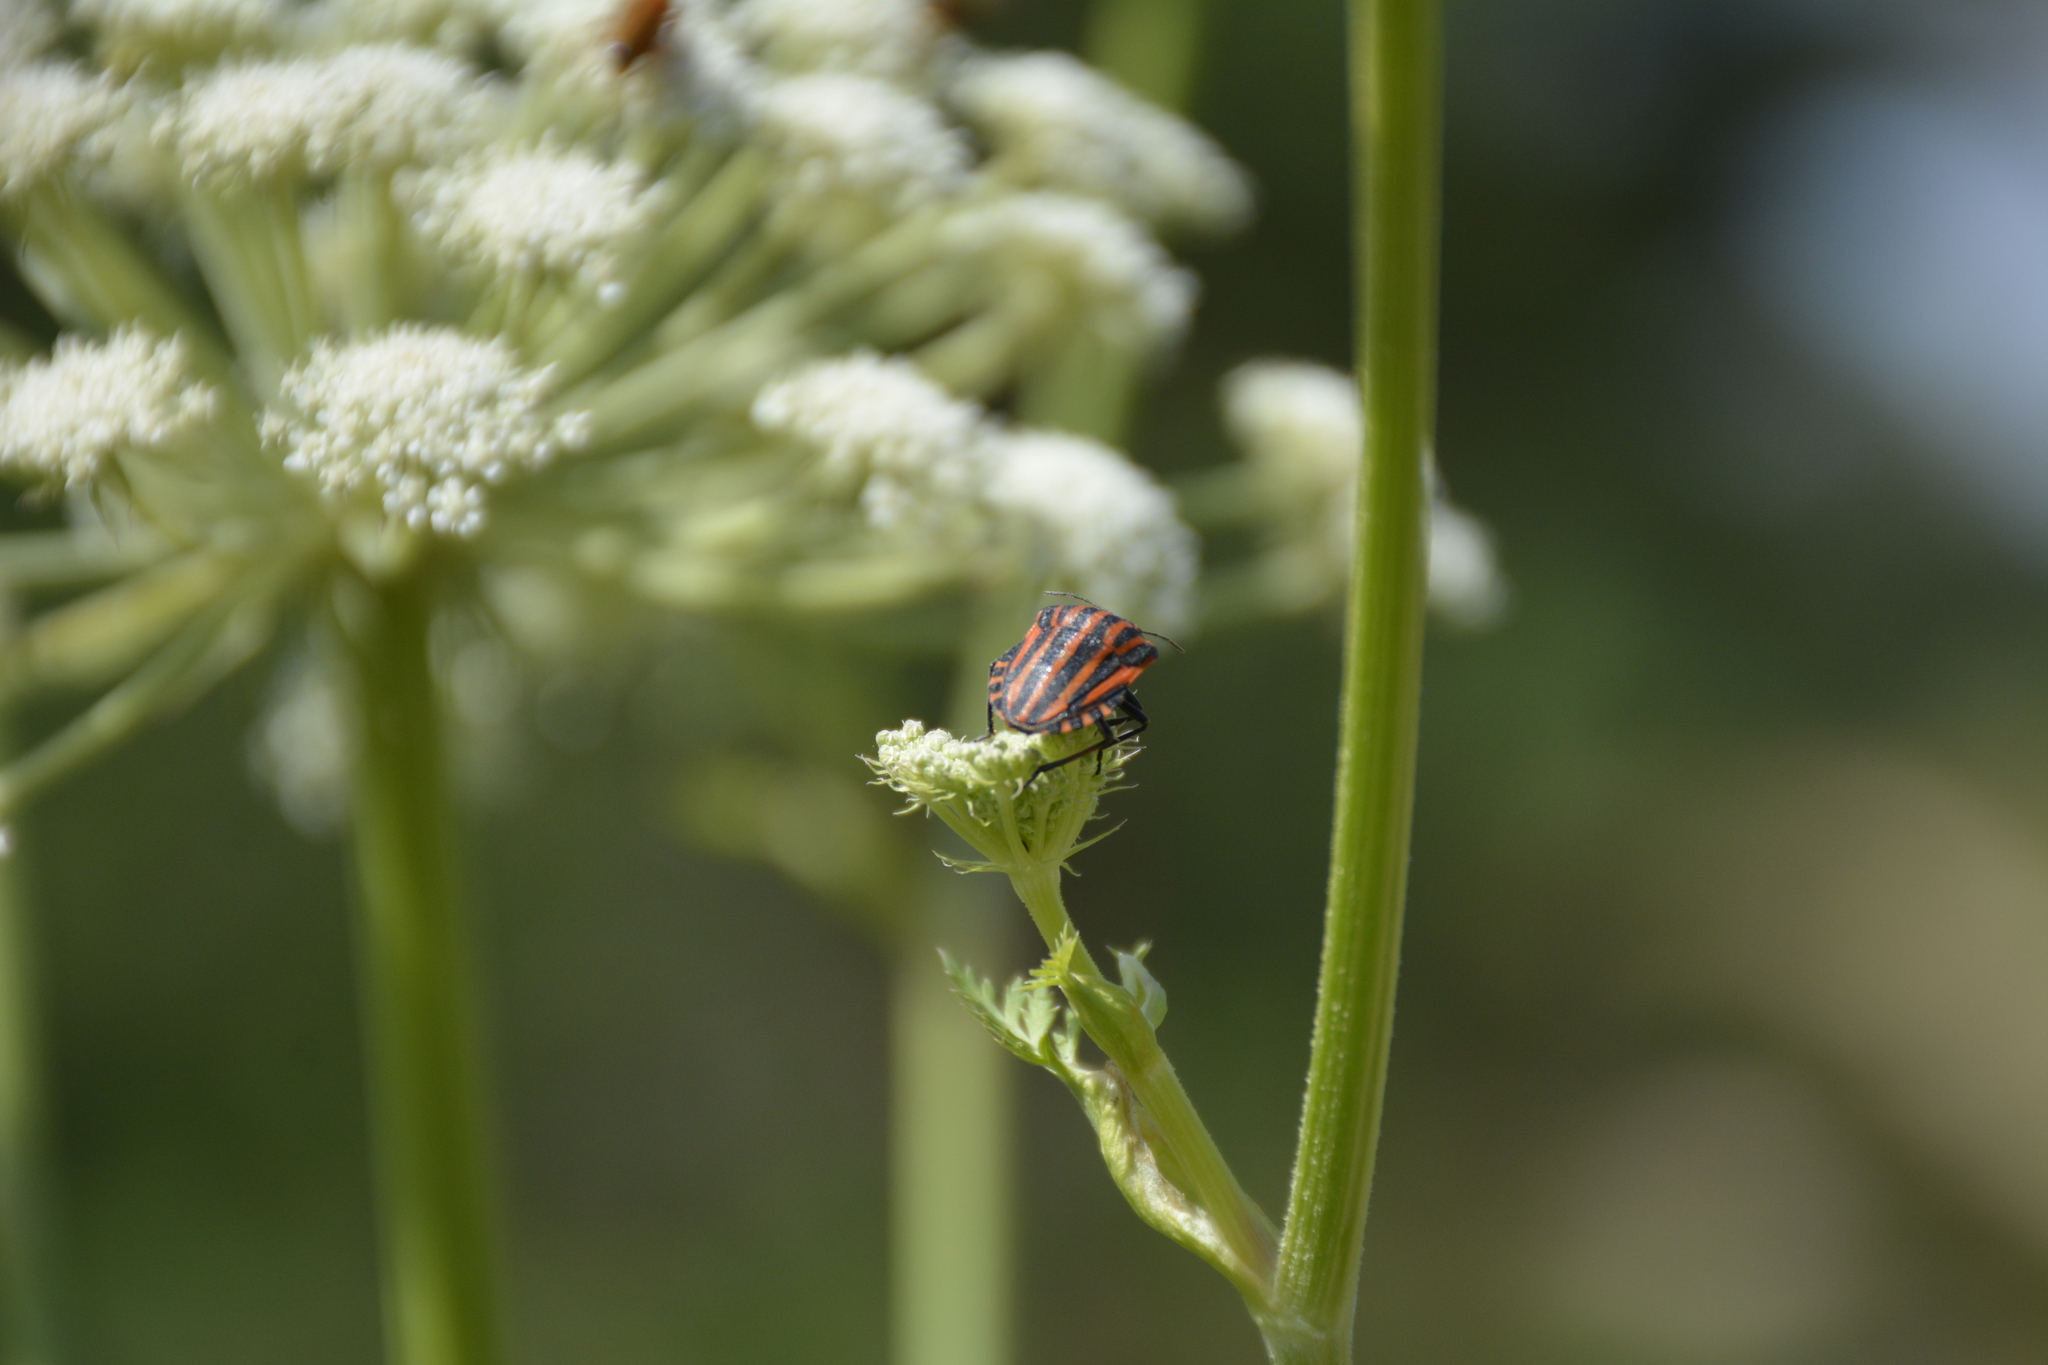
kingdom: Animalia
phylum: Arthropoda
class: Insecta
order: Hemiptera
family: Pentatomidae
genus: Graphosoma
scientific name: Graphosoma italicum
